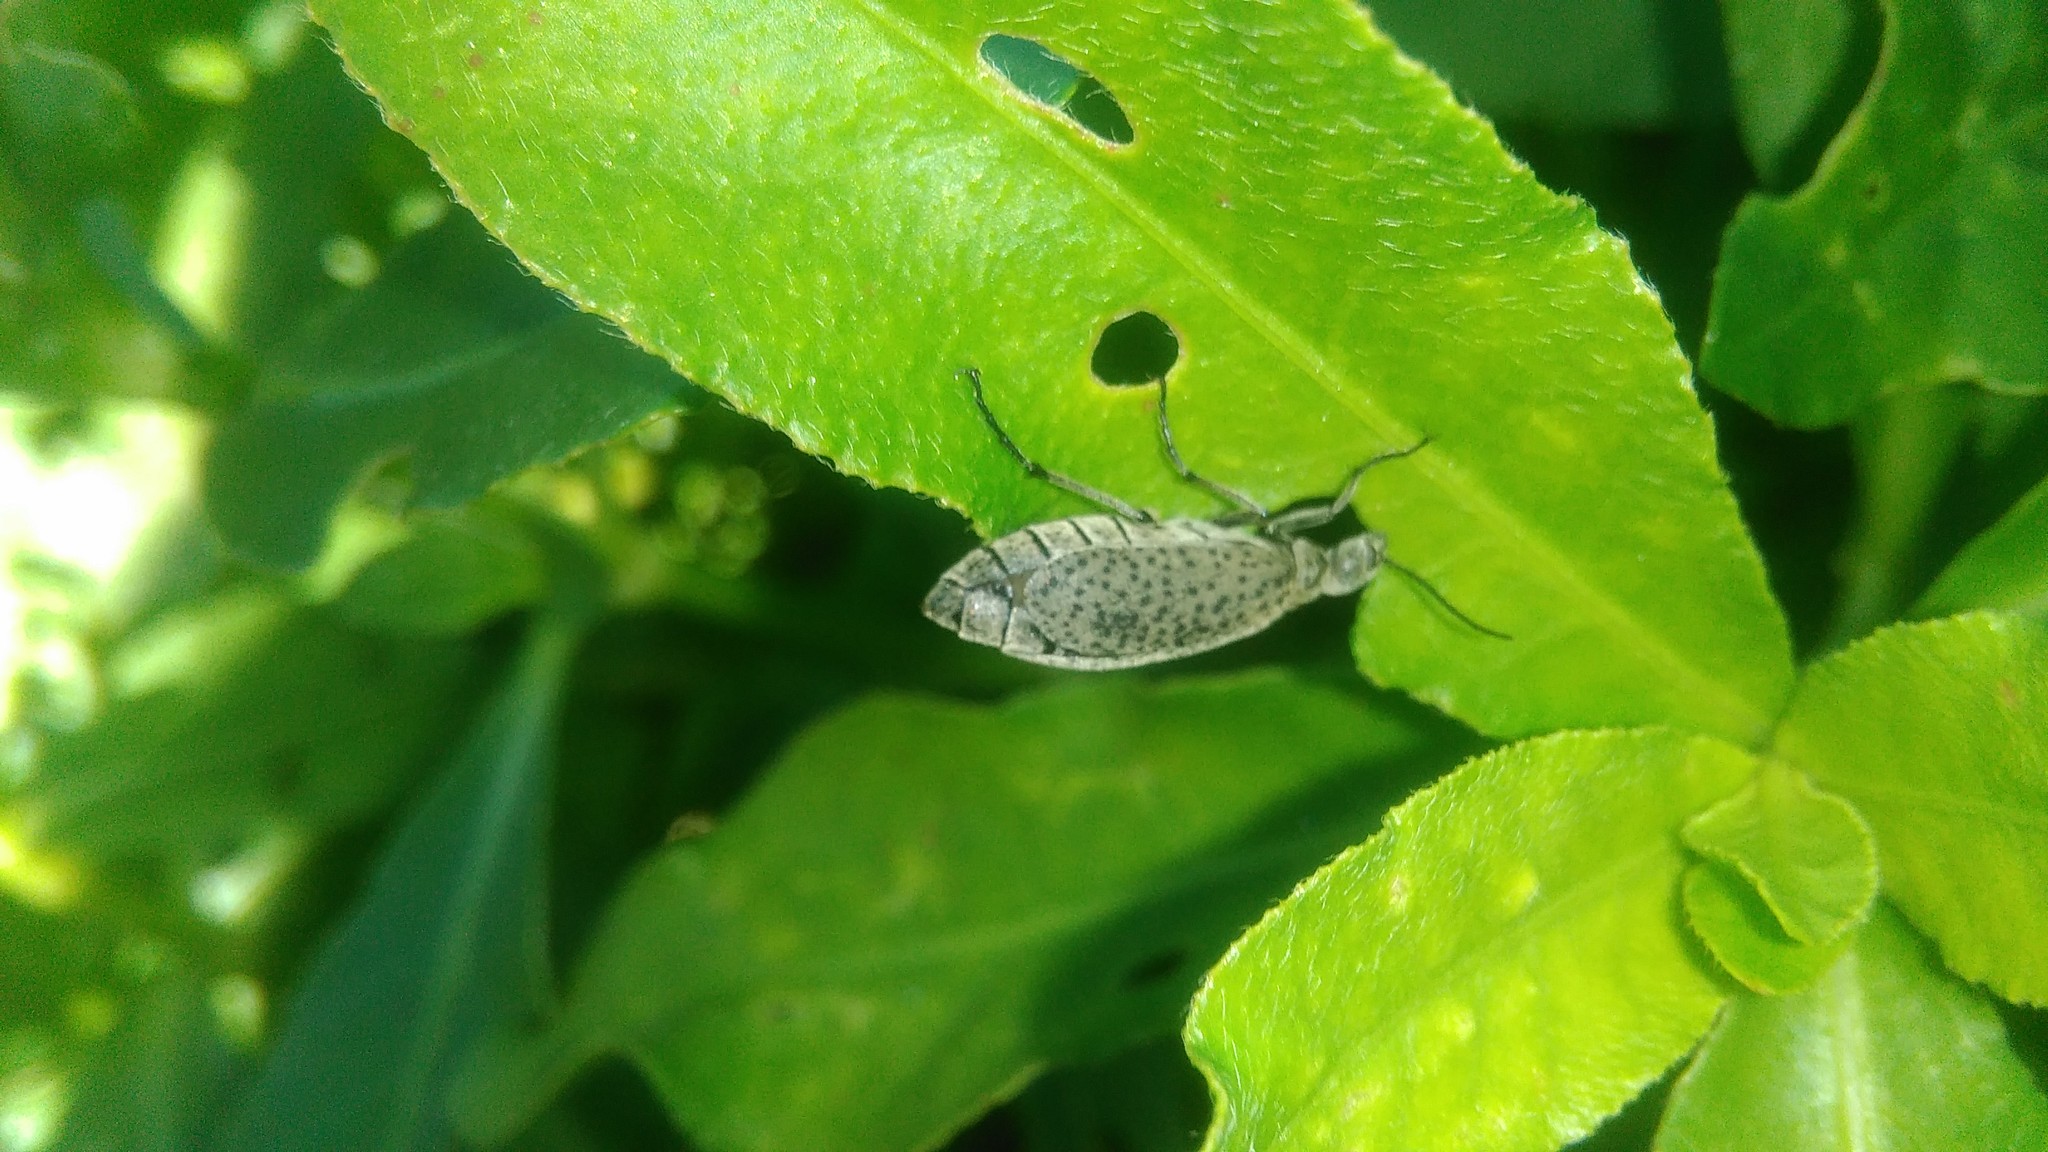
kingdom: Animalia
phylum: Arthropoda
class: Insecta
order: Coleoptera
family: Meloidae
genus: Epicauta
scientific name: Epicauta
